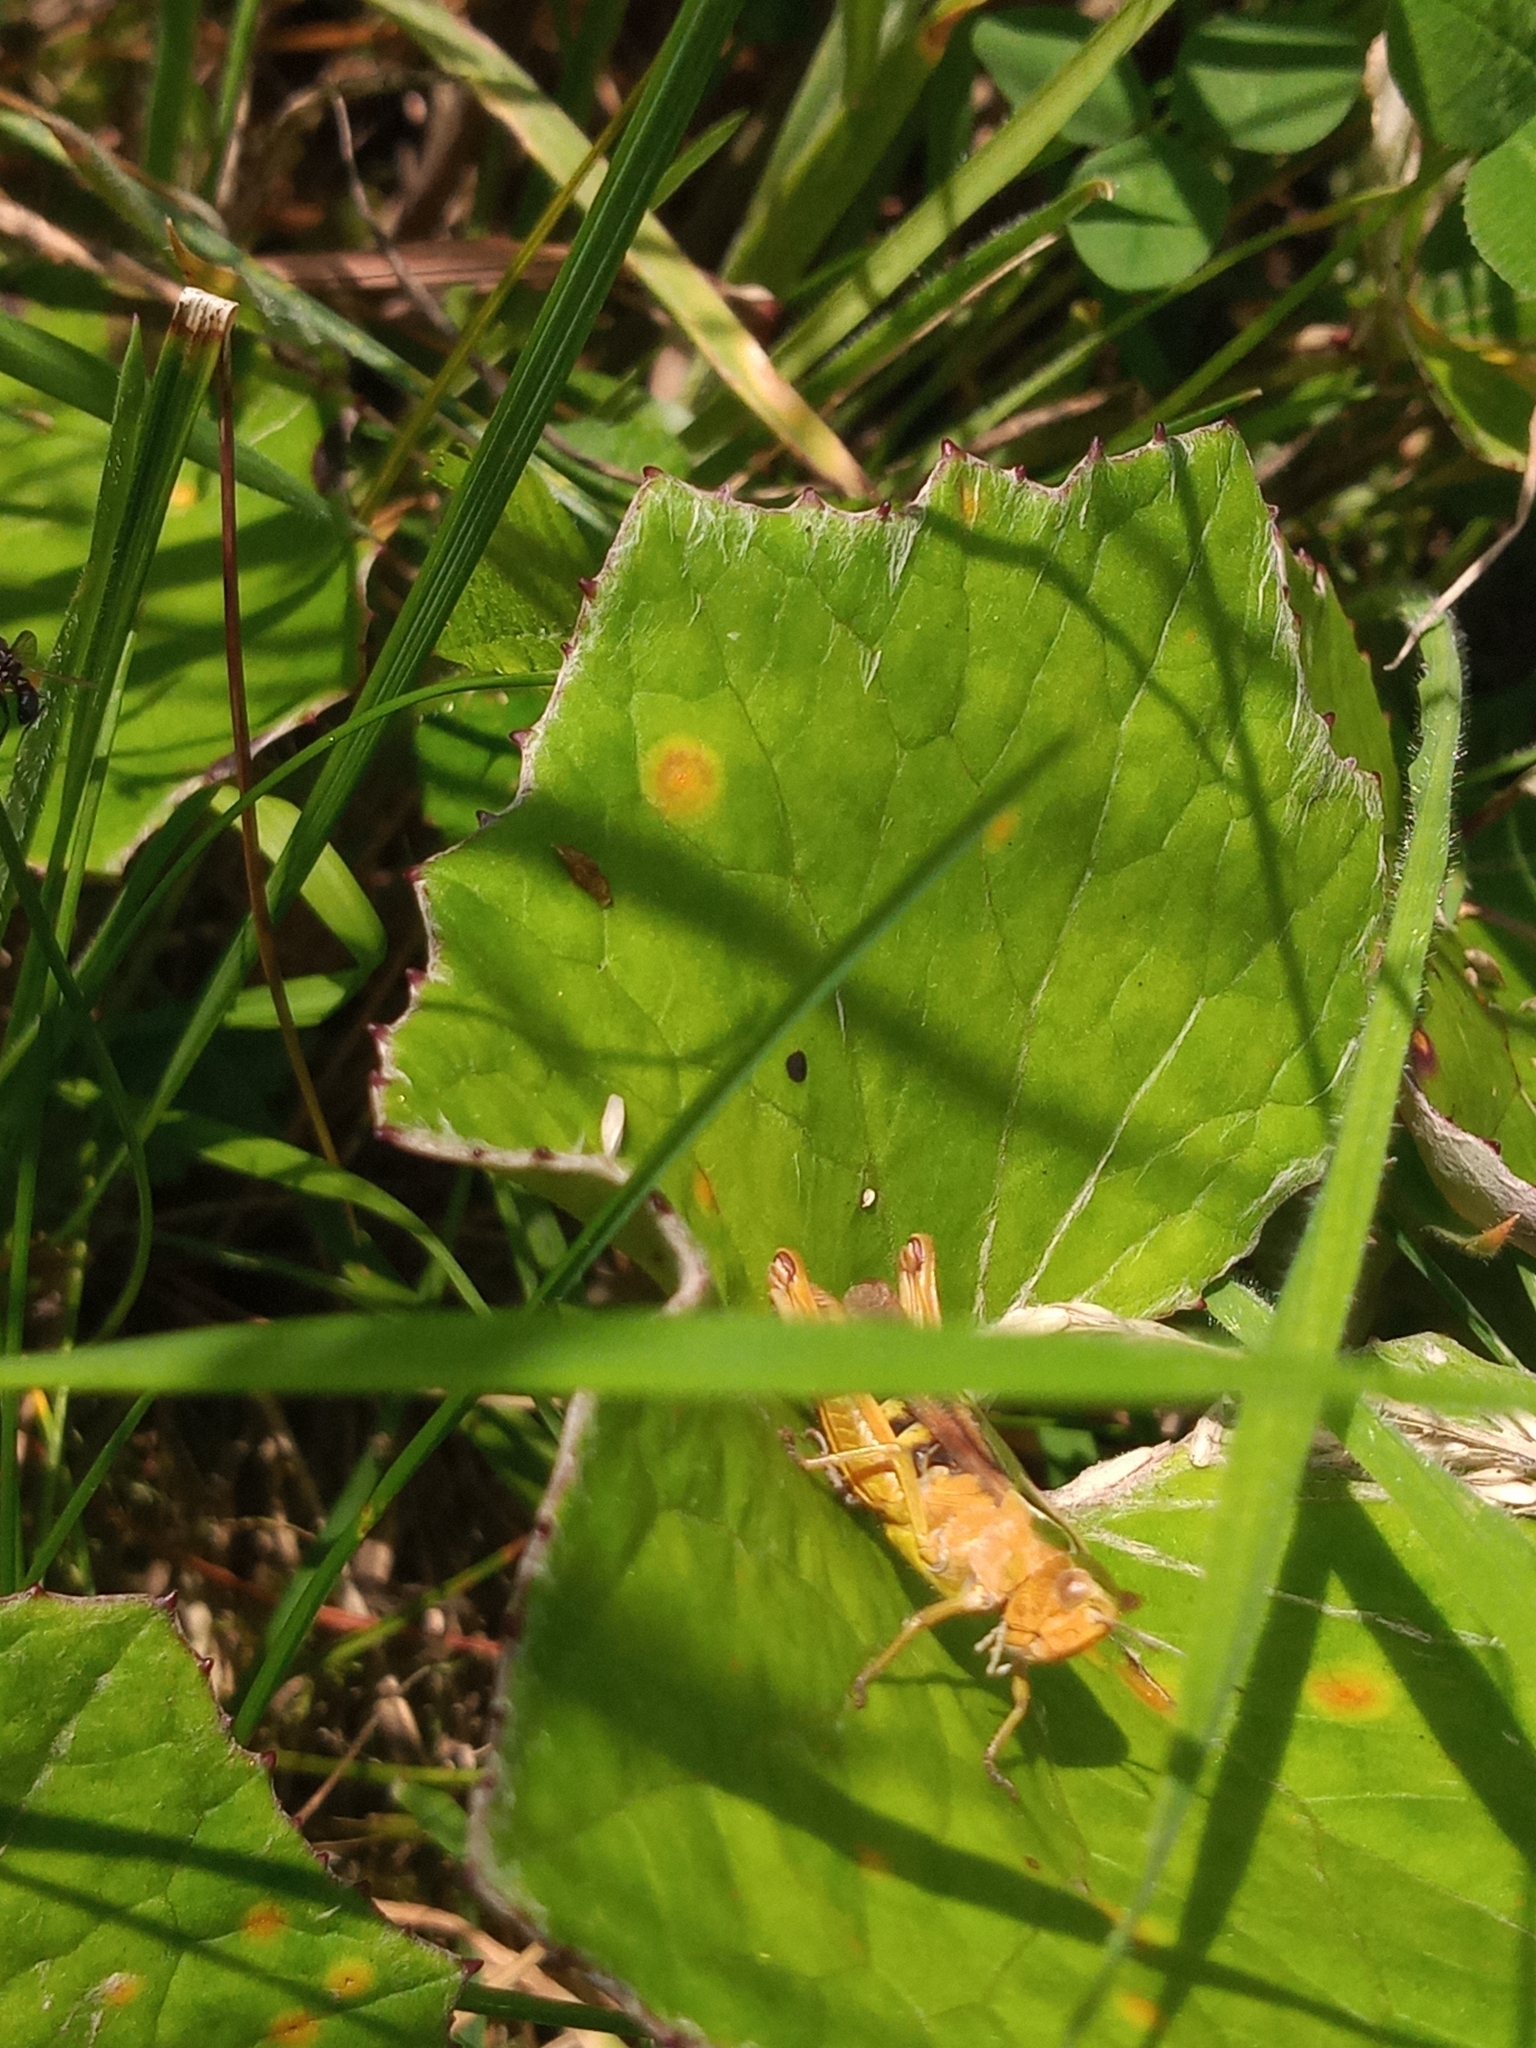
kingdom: Animalia
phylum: Arthropoda
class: Insecta
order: Orthoptera
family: Acrididae
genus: Omocestus
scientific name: Omocestus viridulus
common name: Common green grasshopper
